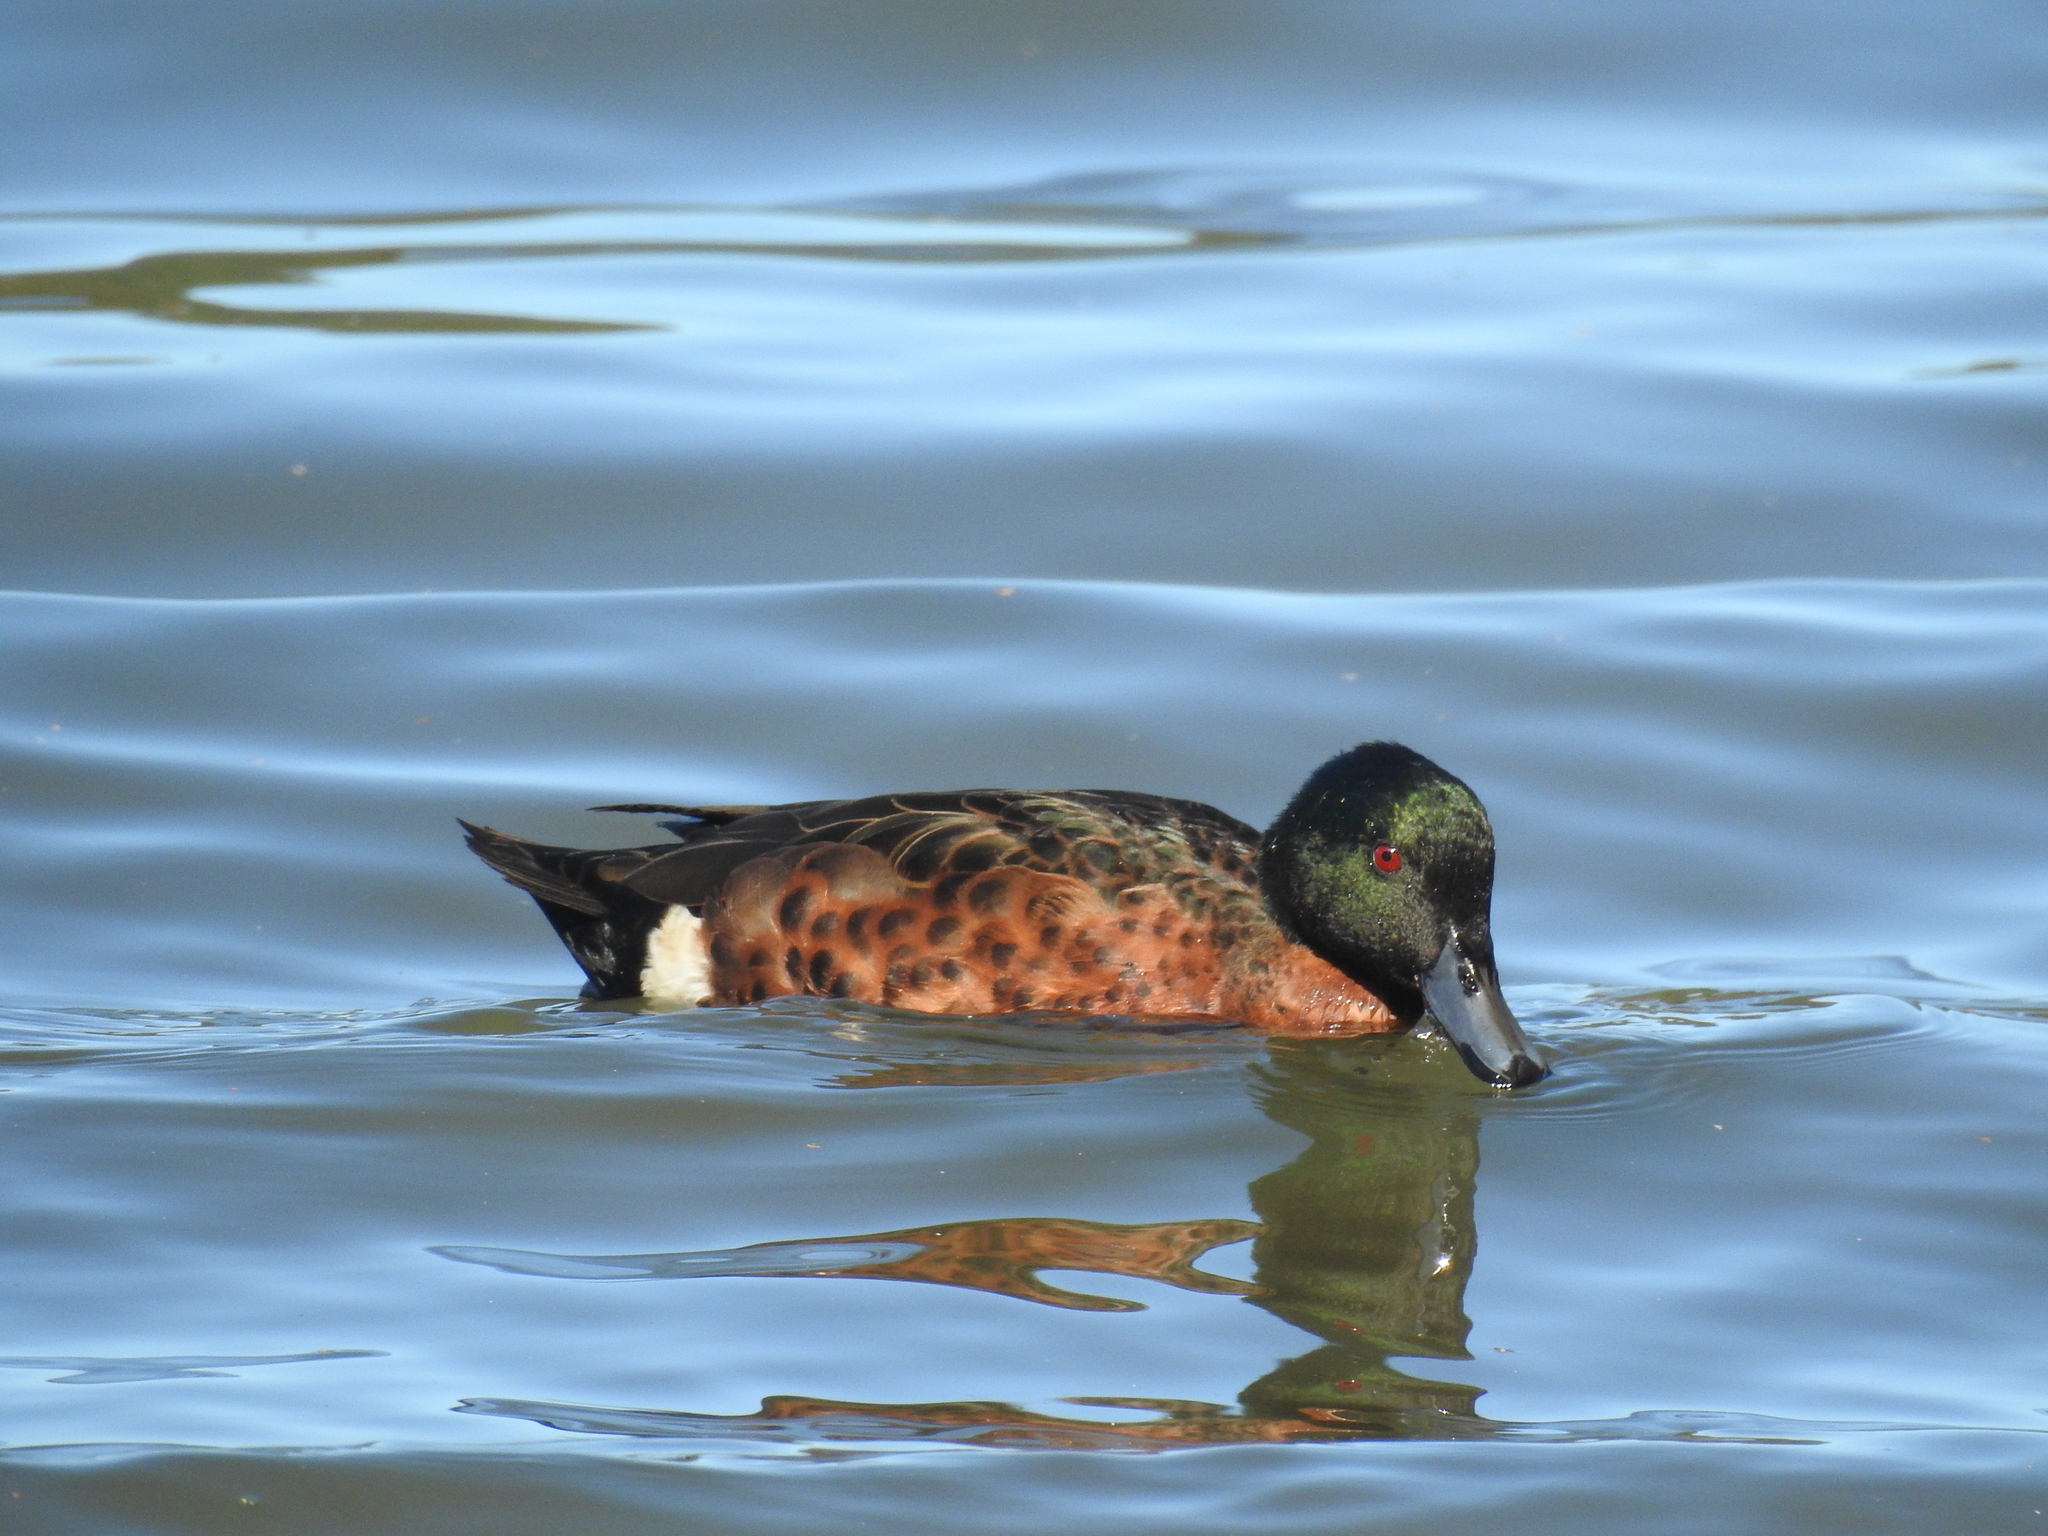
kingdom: Animalia
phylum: Chordata
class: Aves
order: Anseriformes
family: Anatidae
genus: Anas
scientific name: Anas castanea
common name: Chestnut teal
